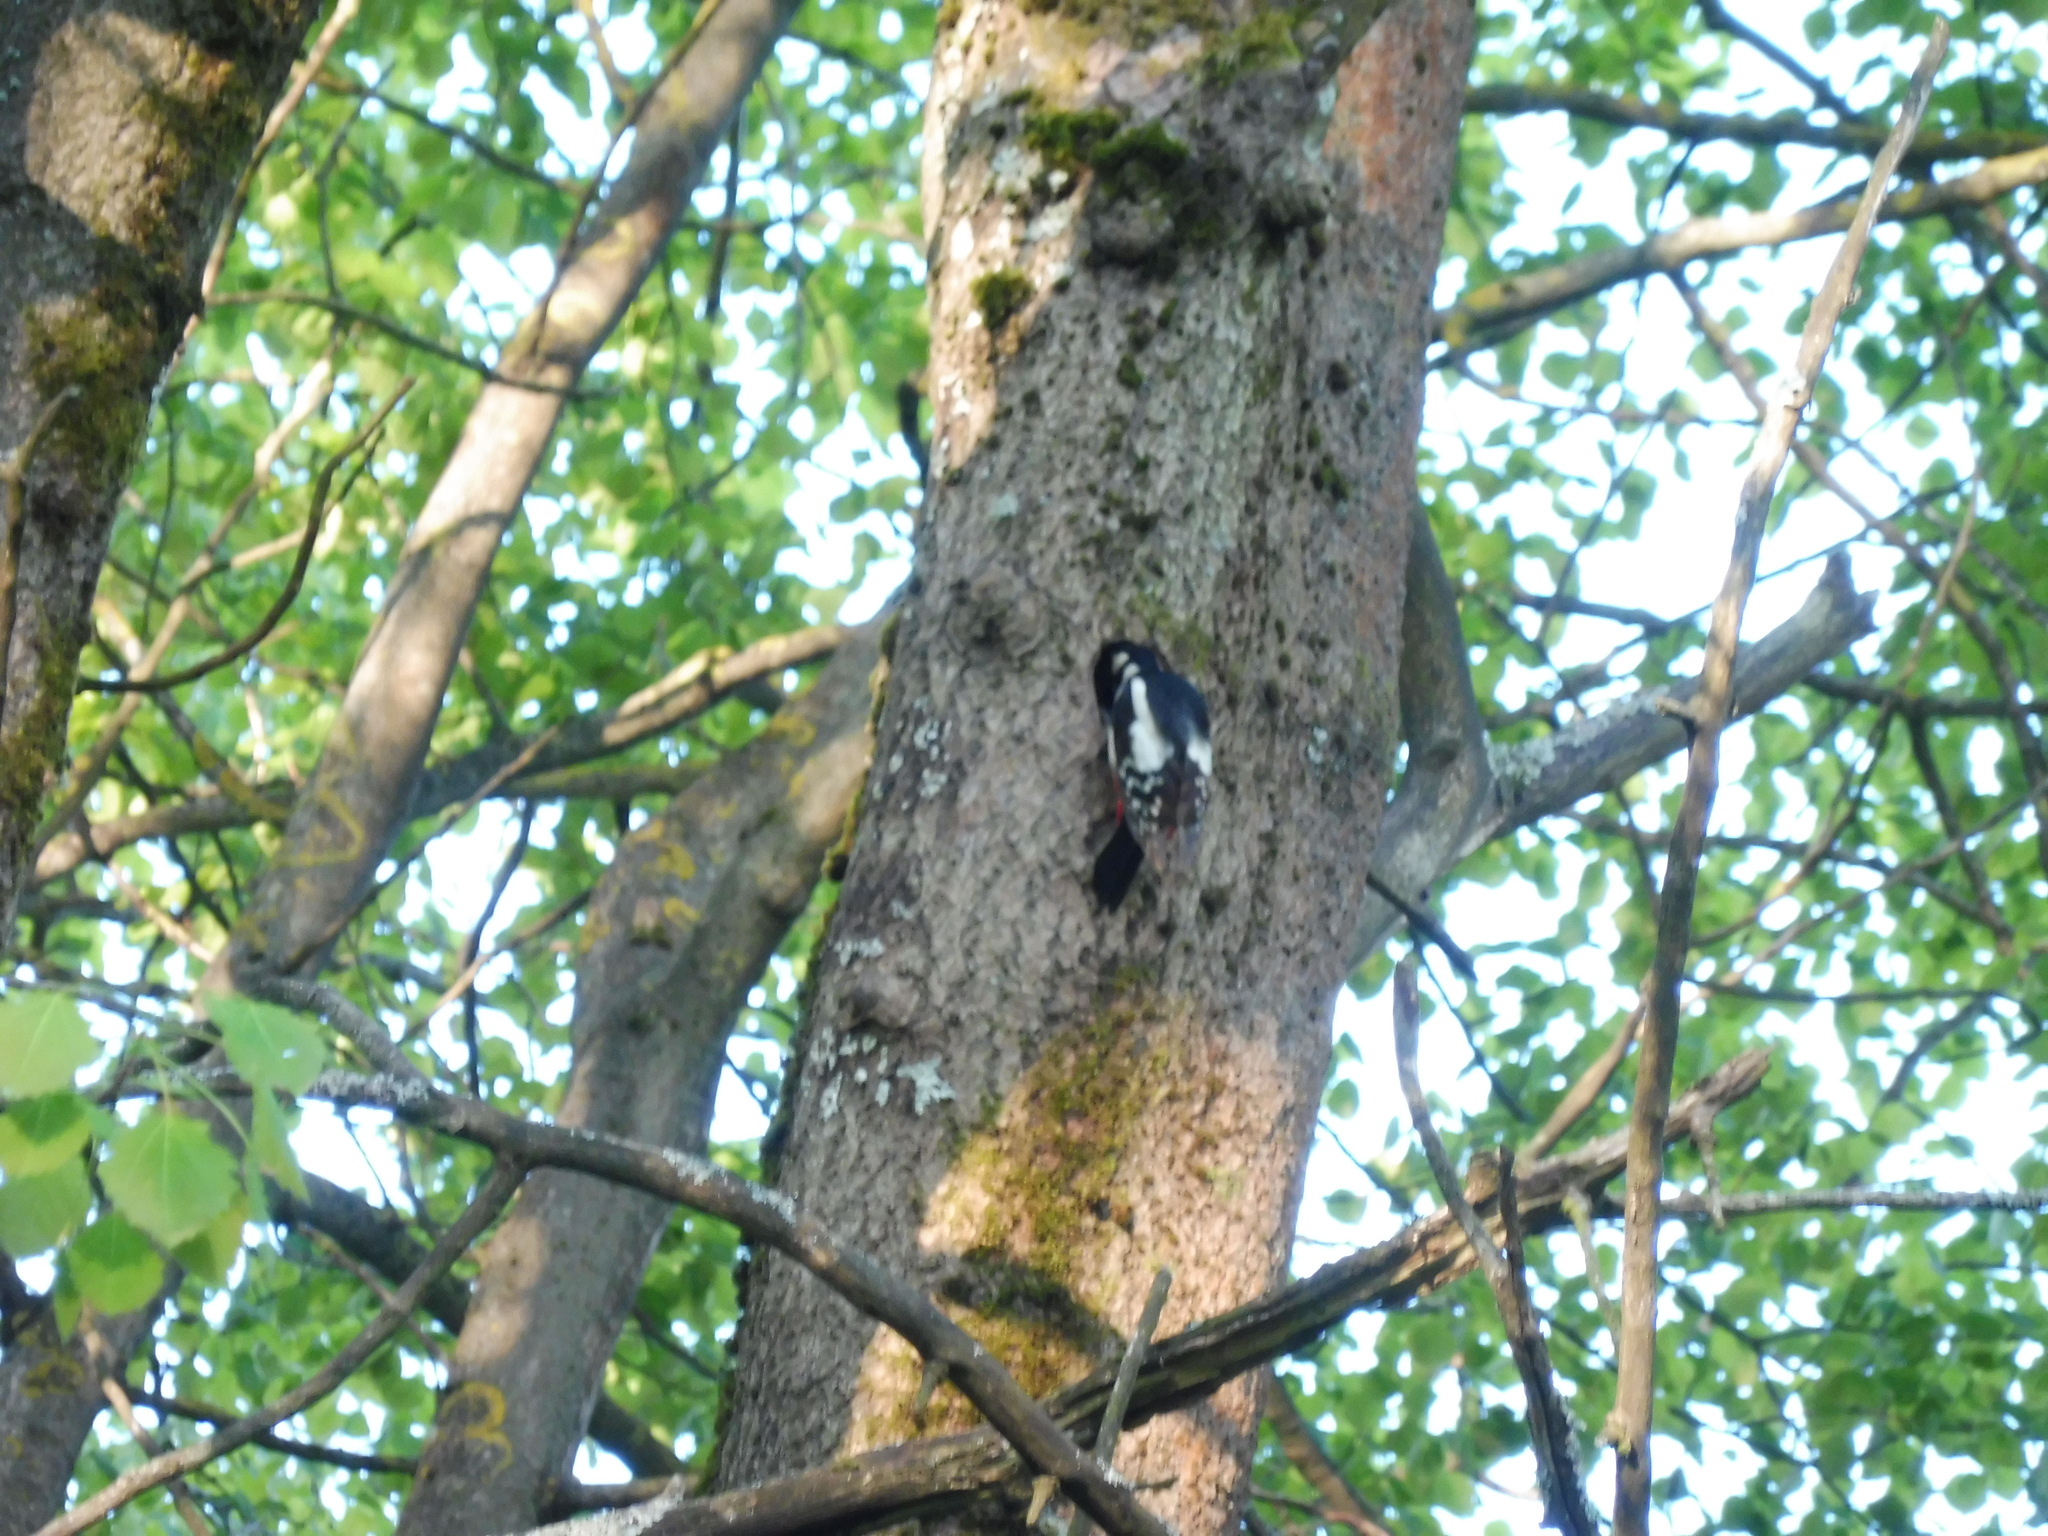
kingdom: Animalia
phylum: Chordata
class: Aves
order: Piciformes
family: Picidae
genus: Dendrocopos
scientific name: Dendrocopos major
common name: Great spotted woodpecker
